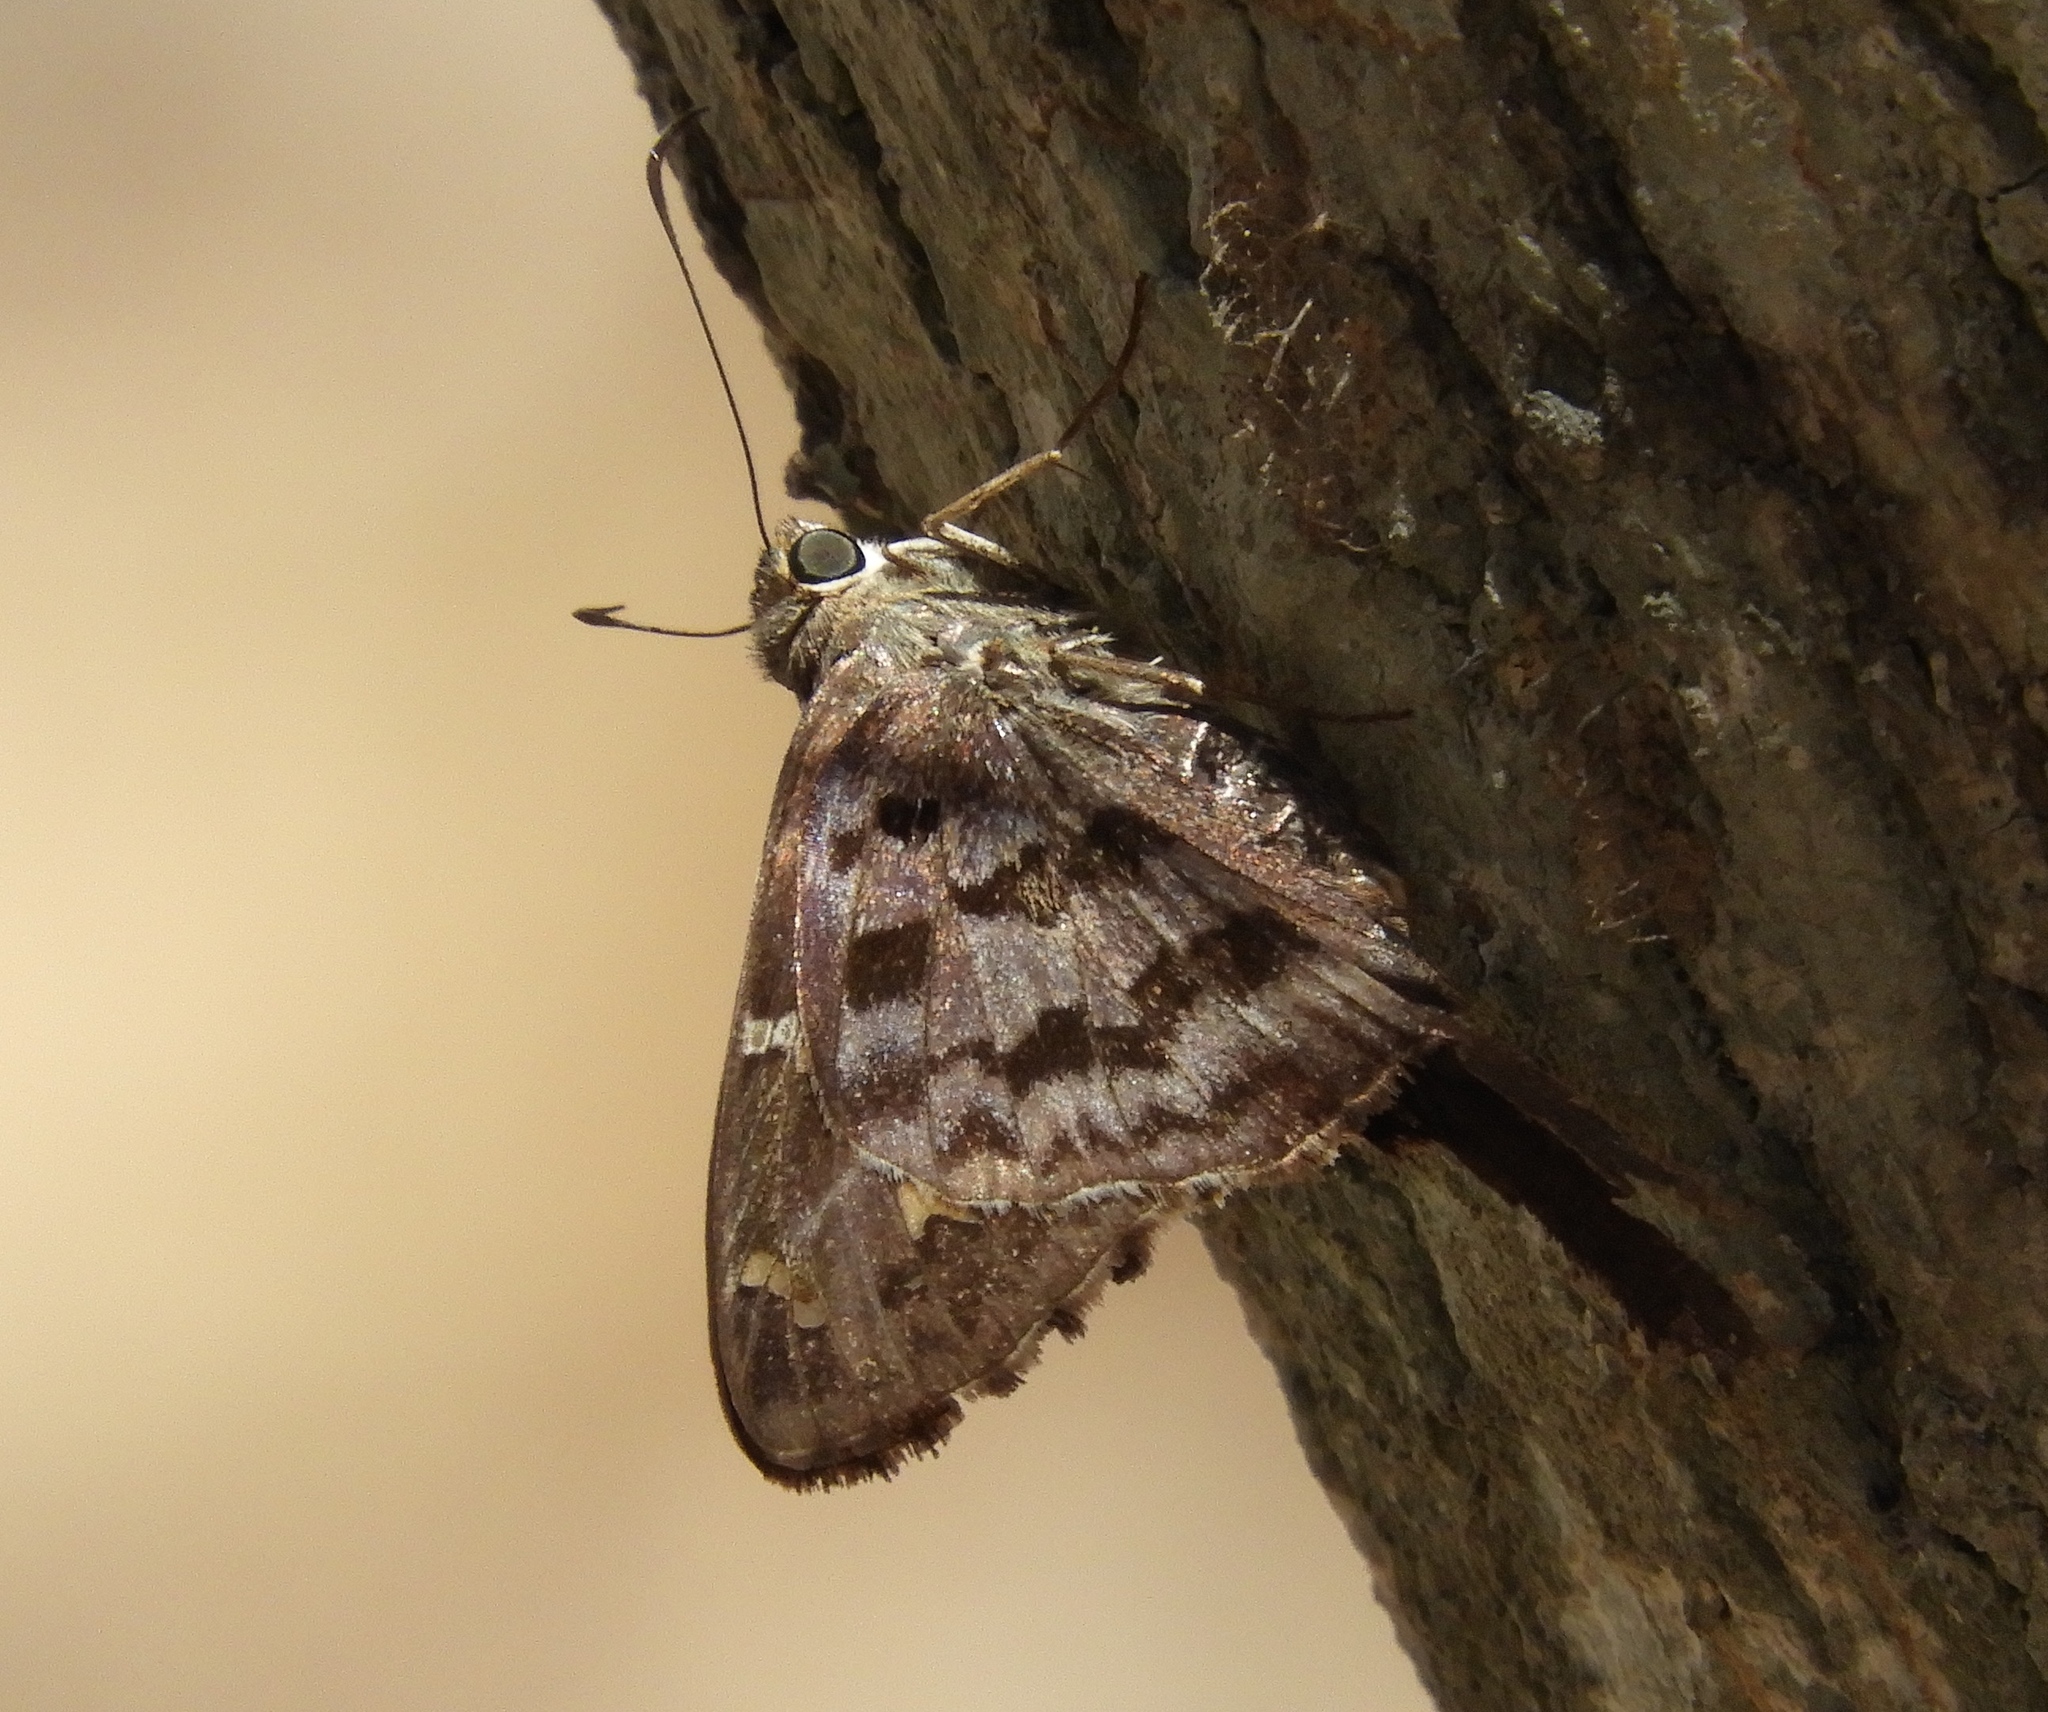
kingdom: Animalia
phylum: Arthropoda
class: Insecta
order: Lepidoptera
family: Hesperiidae
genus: Thorybes
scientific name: Thorybes
